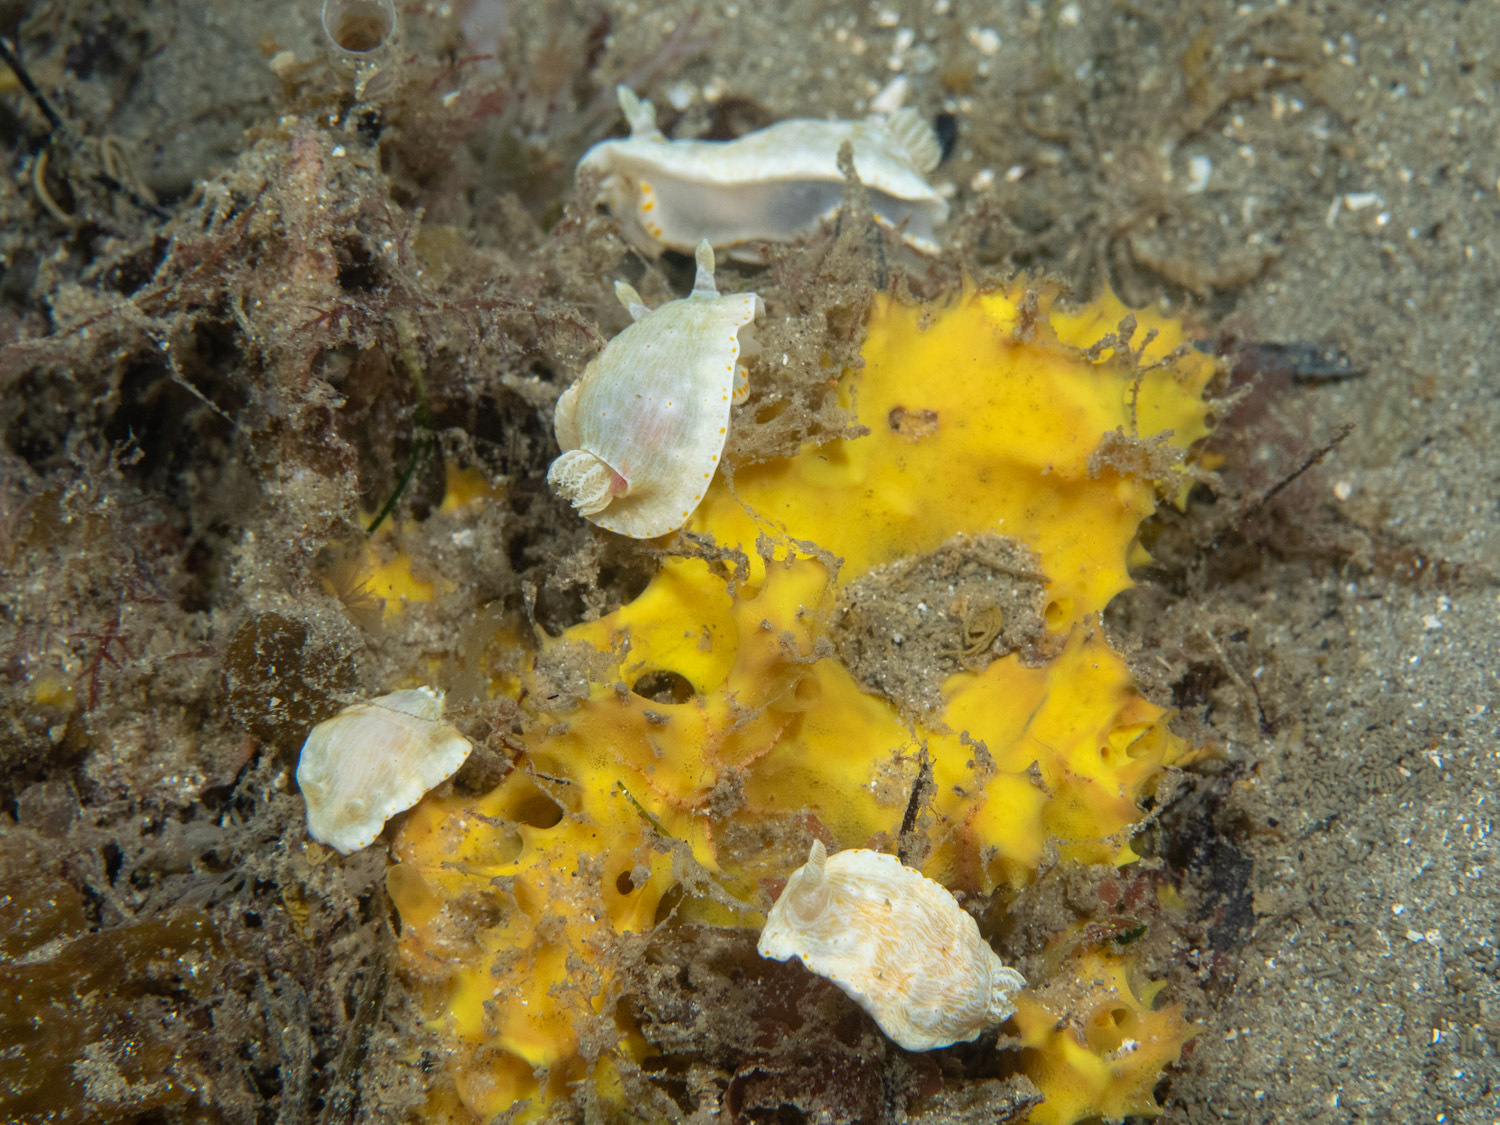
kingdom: Animalia
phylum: Mollusca
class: Gastropoda
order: Nudibranchia
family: Chromodorididae
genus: Goniobranchus
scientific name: Goniobranchus epicurius
